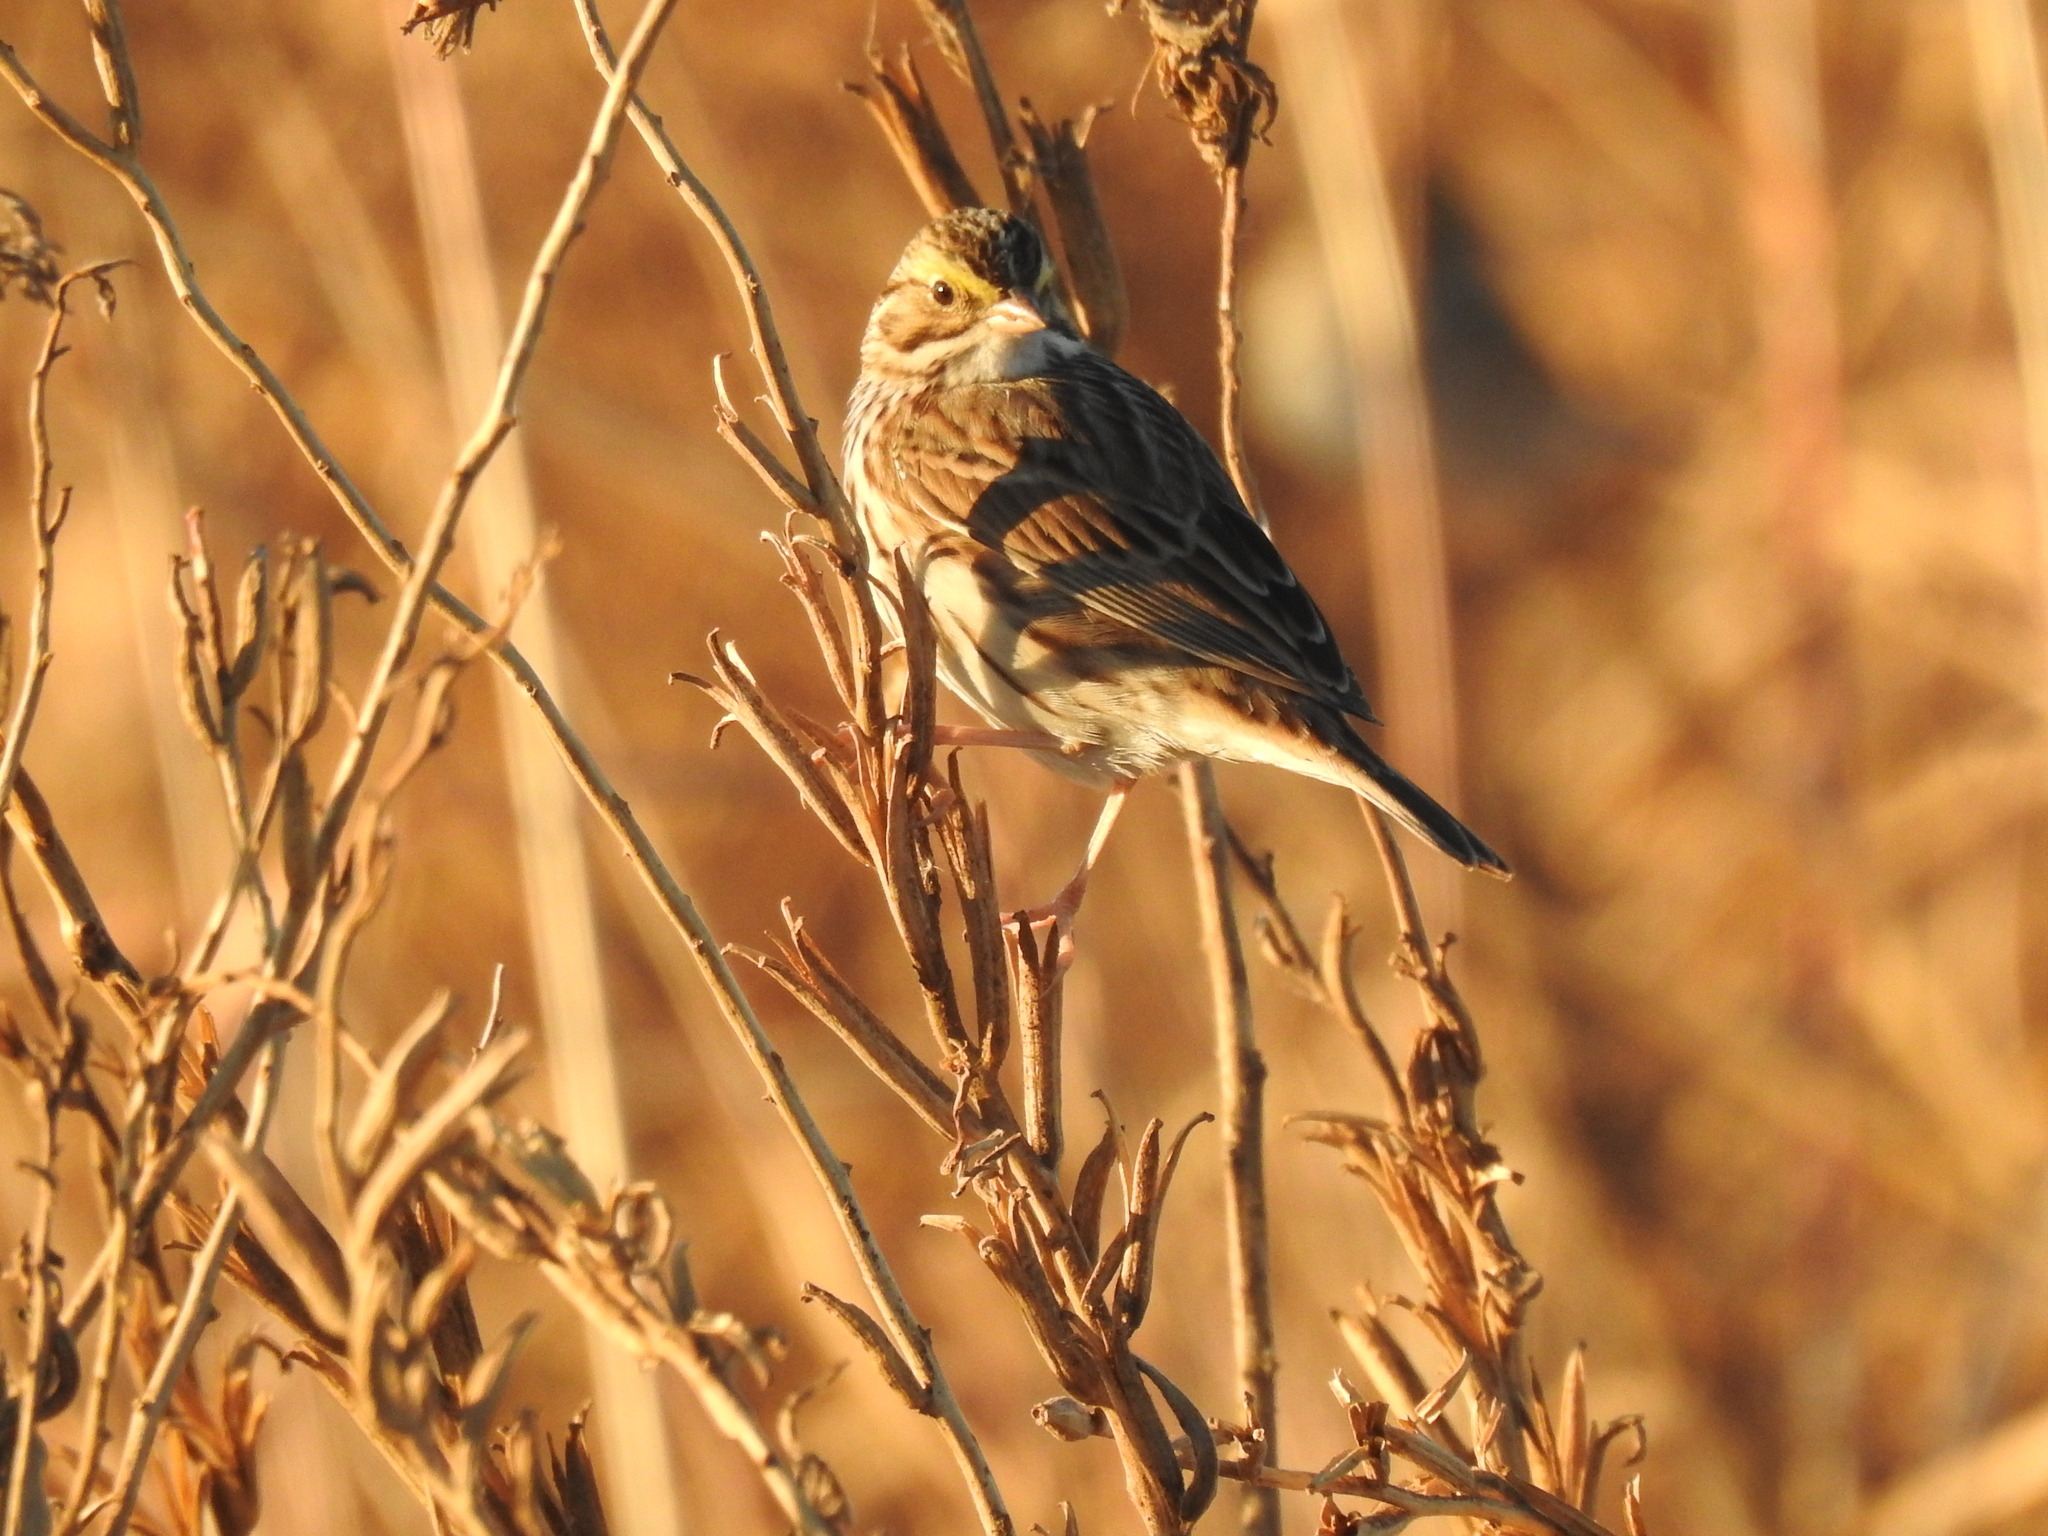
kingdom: Animalia
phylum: Chordata
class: Aves
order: Passeriformes
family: Passerellidae
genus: Passerculus
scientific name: Passerculus sandwichensis
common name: Savannah sparrow
